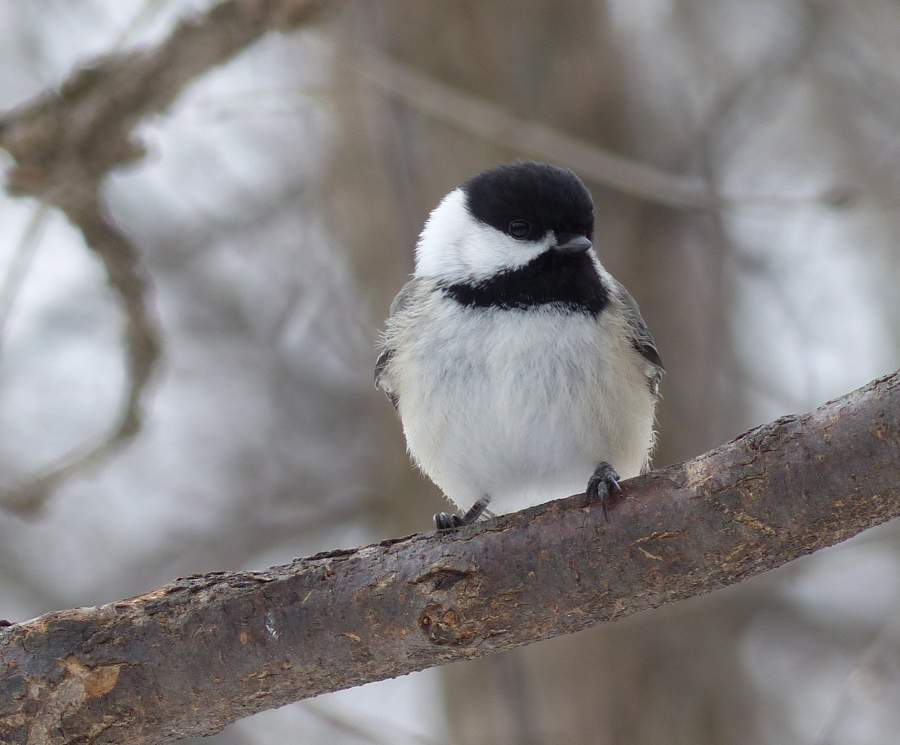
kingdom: Animalia
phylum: Chordata
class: Aves
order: Passeriformes
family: Paridae
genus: Poecile
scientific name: Poecile atricapillus
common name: Black-capped chickadee
